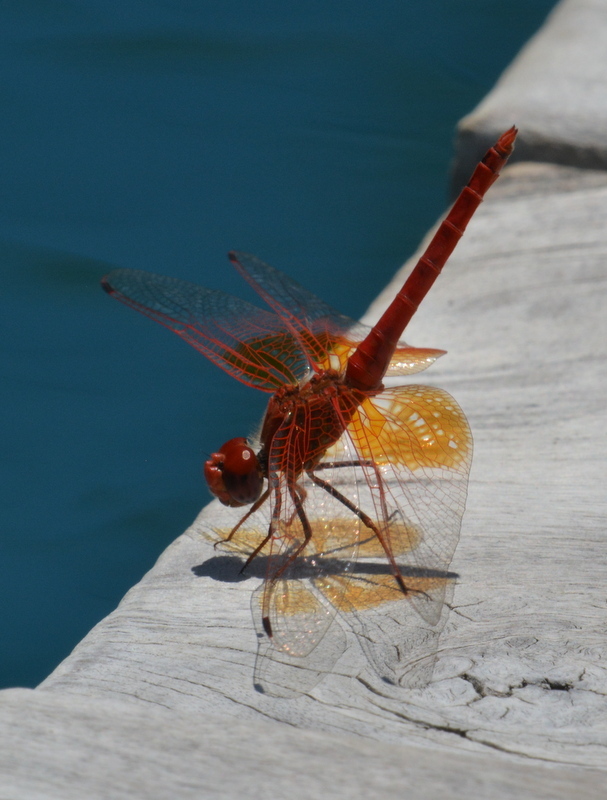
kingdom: Animalia
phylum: Arthropoda
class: Insecta
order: Odonata
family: Libellulidae
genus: Trithemis
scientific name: Trithemis kirbyi
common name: Kirby's dropwing
